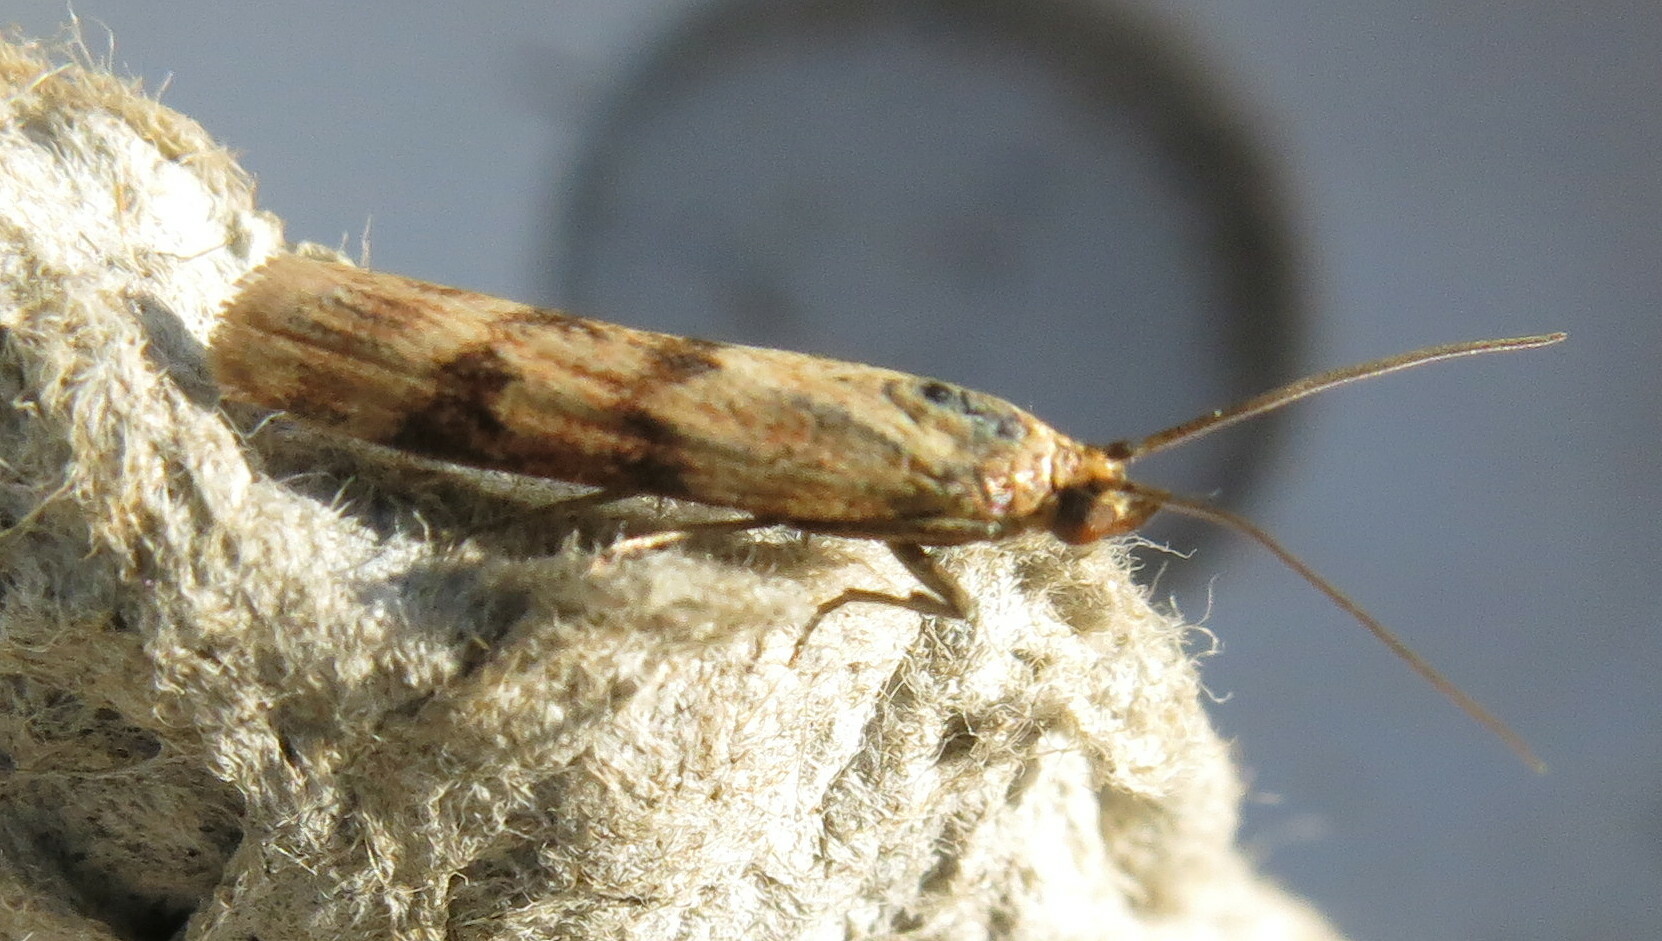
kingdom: Animalia
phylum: Arthropoda
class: Insecta
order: Lepidoptera
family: Pyralidae
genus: Homoeosoma
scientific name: Homoeosoma sinuella
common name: Twin-barred knot-horn
